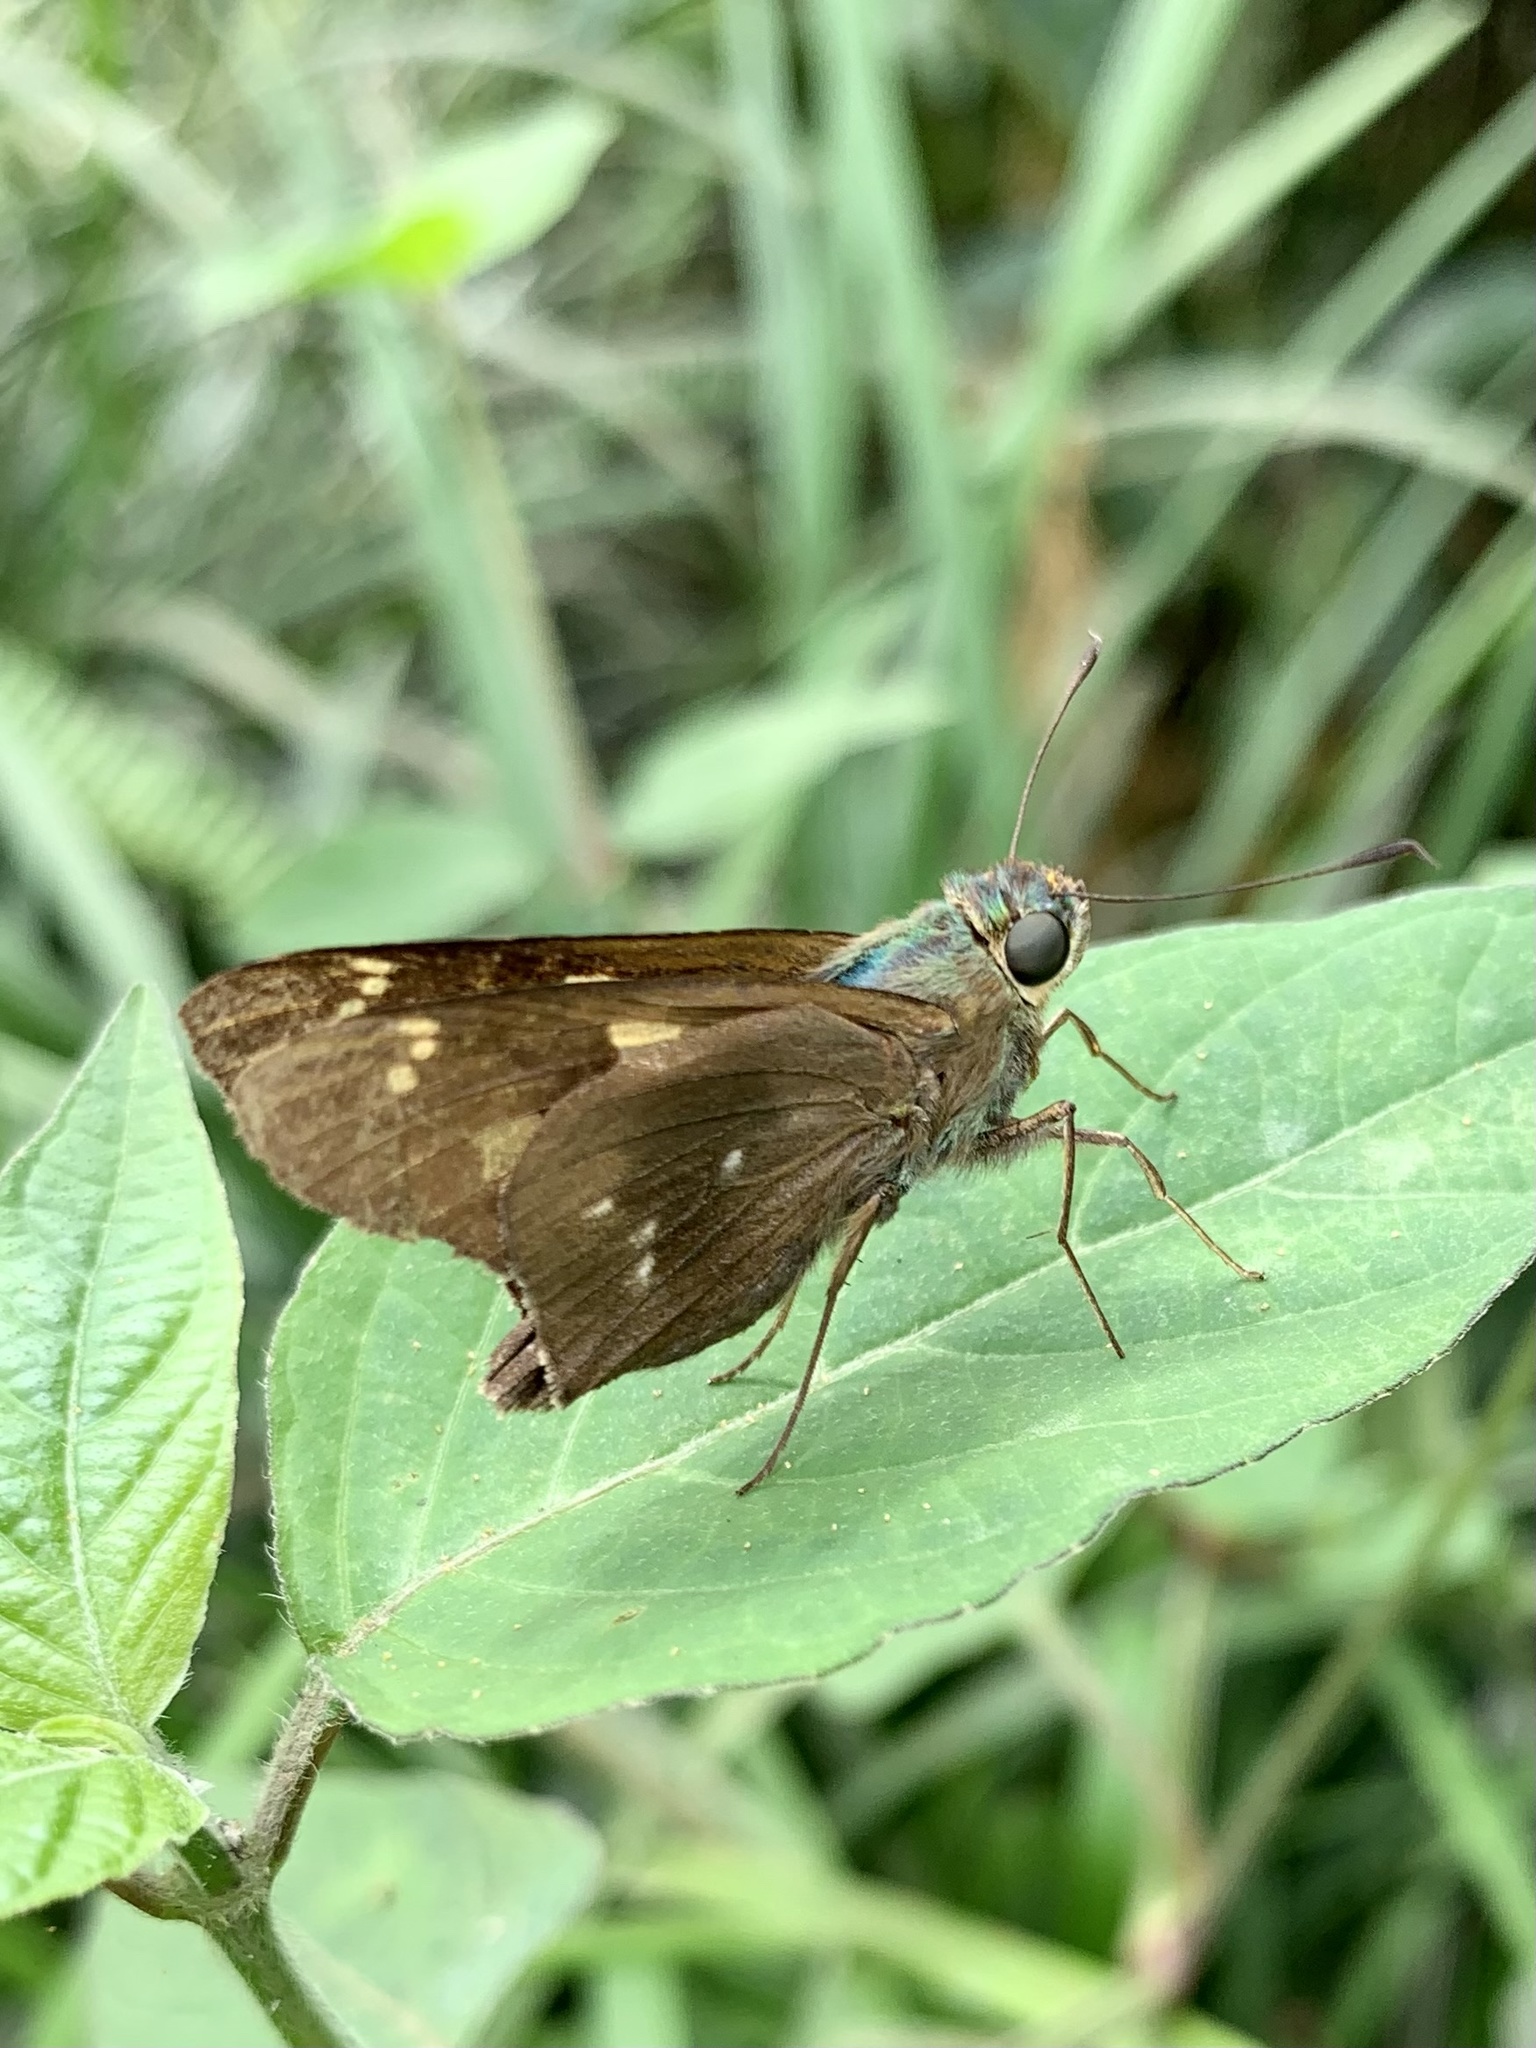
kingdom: Animalia
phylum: Arthropoda
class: Insecta
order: Lepidoptera
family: Hesperiidae
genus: Rhinthon
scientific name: Rhinthon cubana
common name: Cuban skipper
